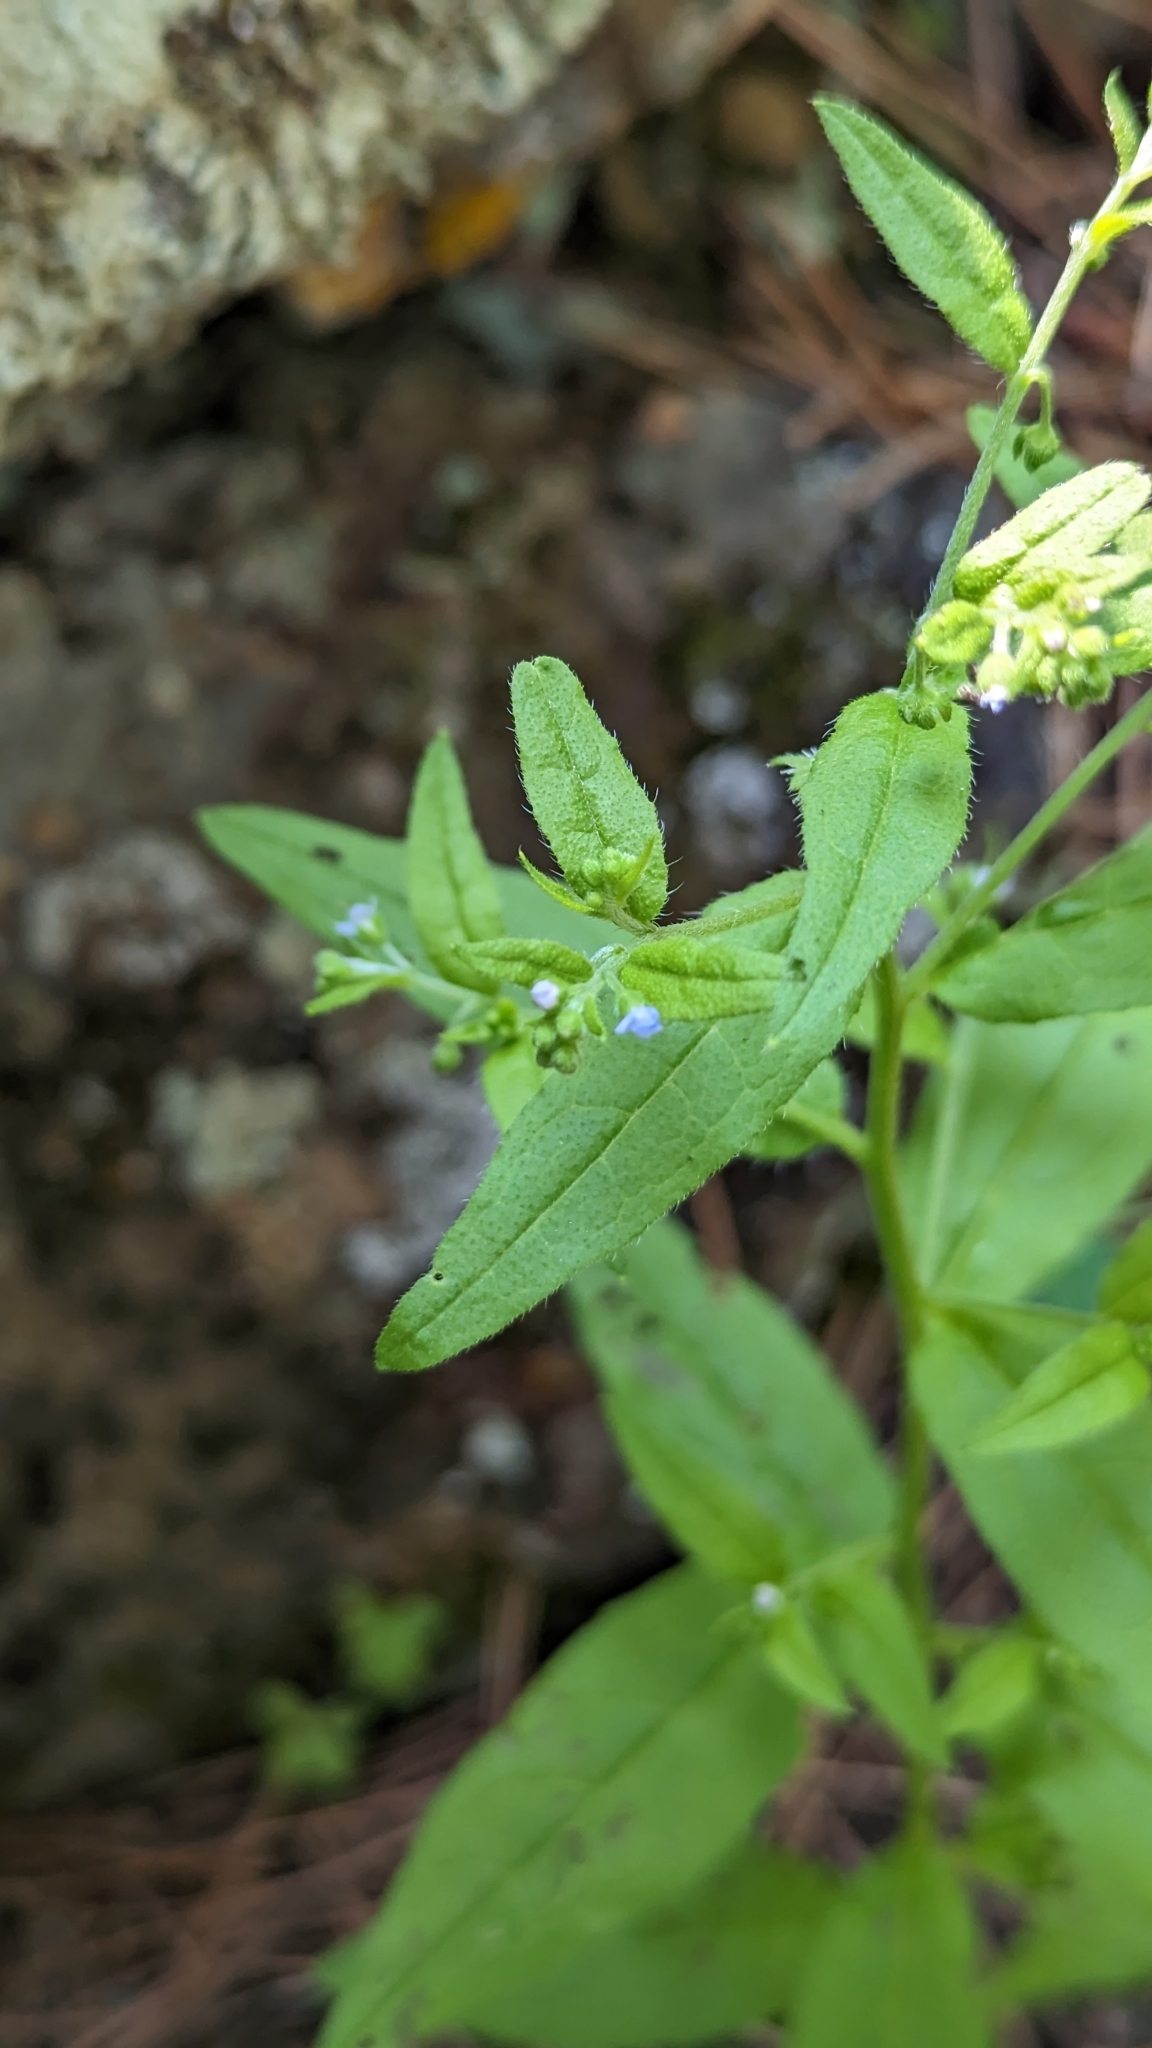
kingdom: Plantae
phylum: Tracheophyta
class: Magnoliopsida
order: Boraginales
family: Boraginaceae
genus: Hackelia
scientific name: Hackelia deflexa
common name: Nodding stickseed
